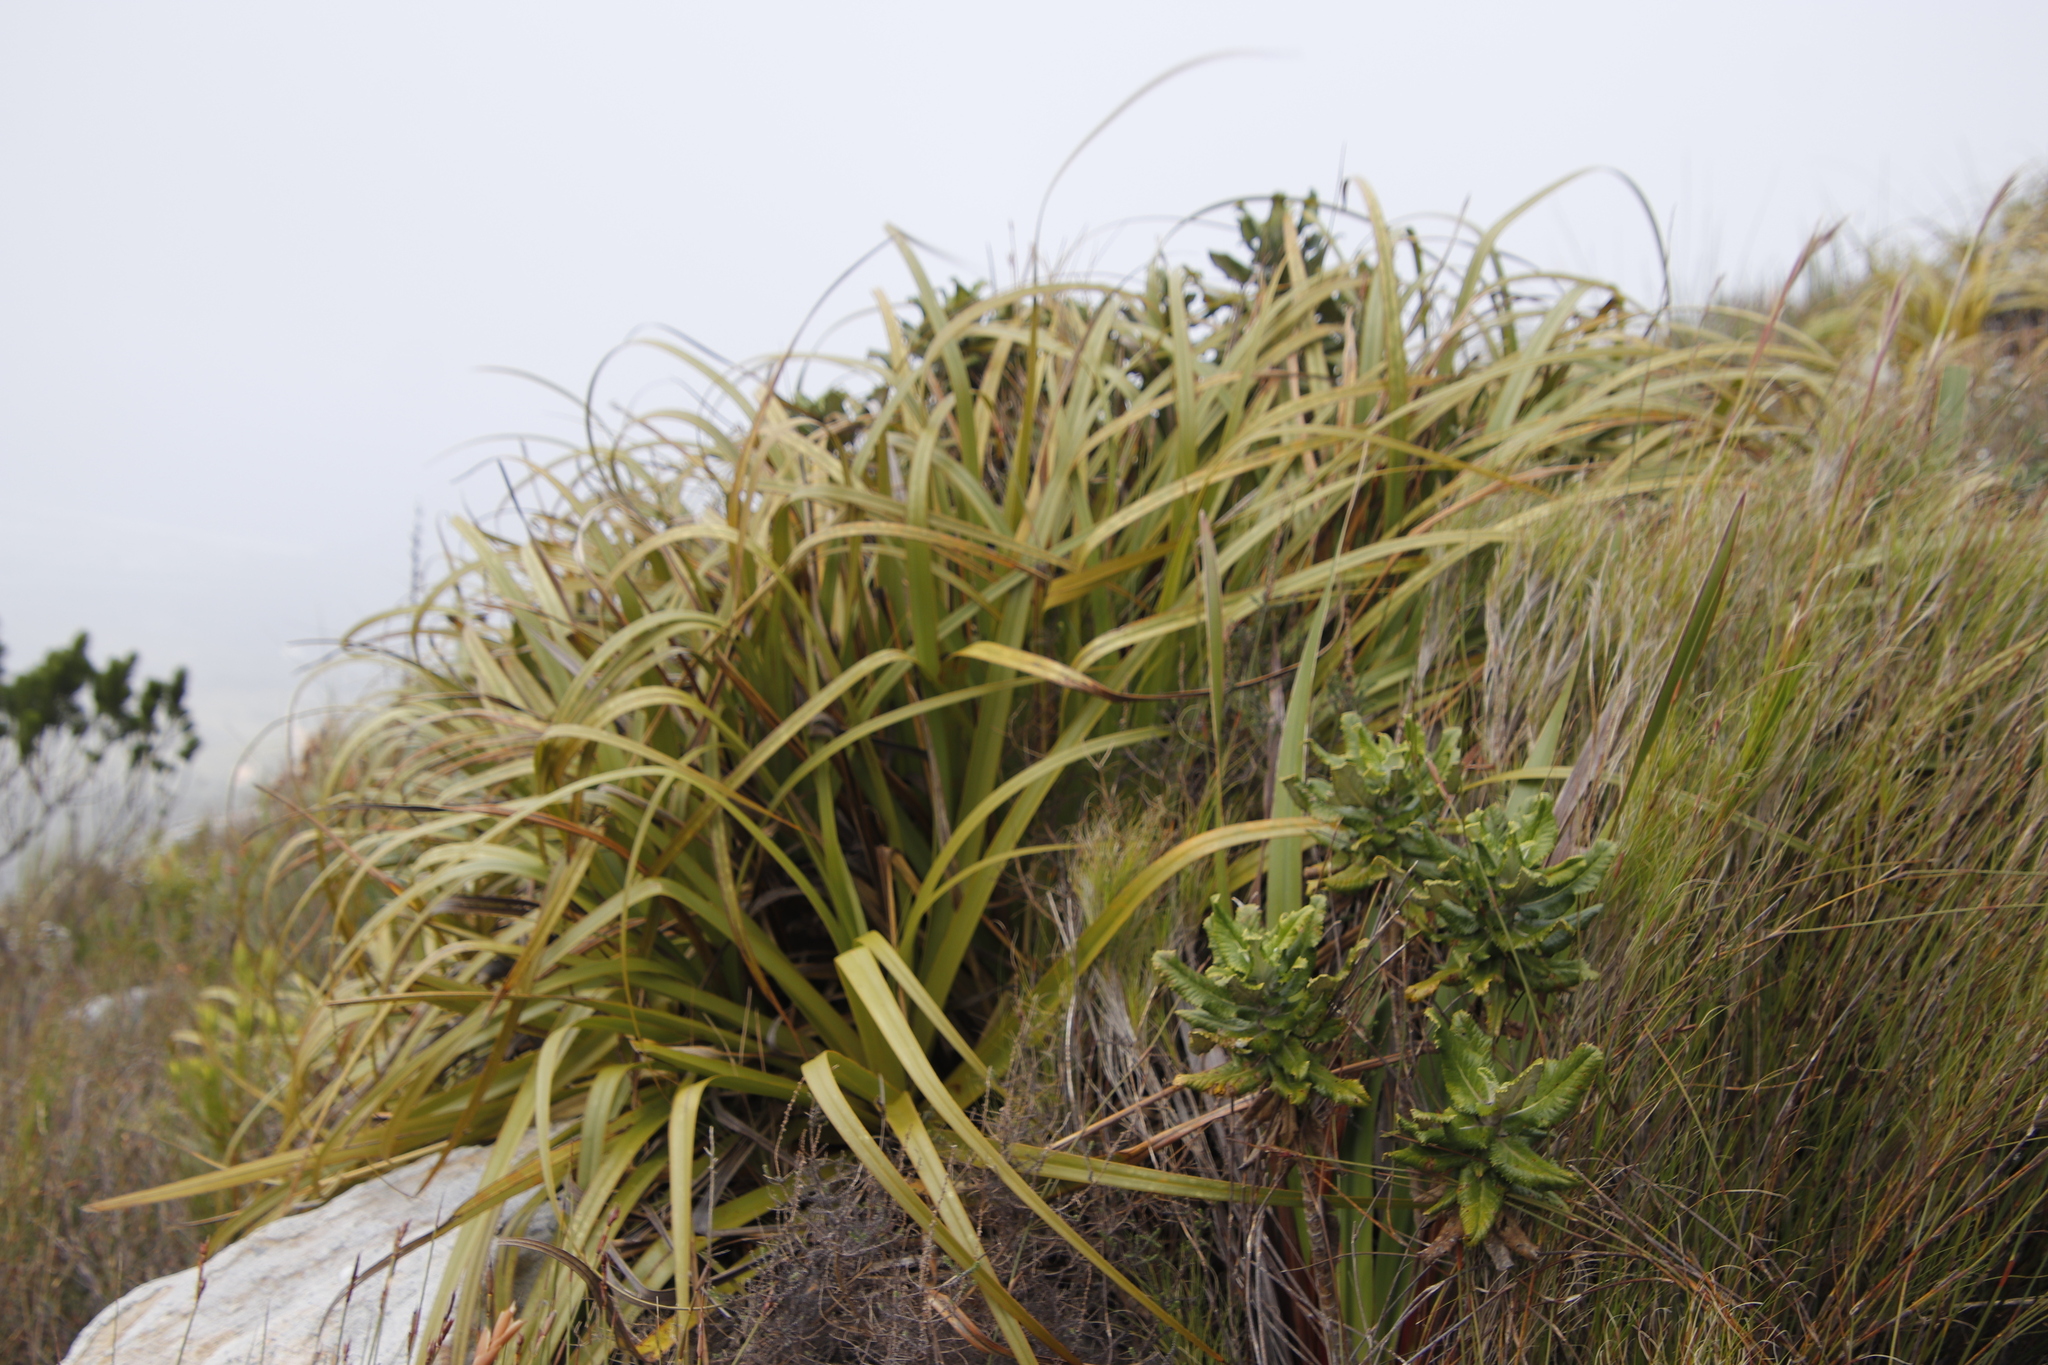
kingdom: Plantae
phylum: Tracheophyta
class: Liliopsida
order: Poales
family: Cyperaceae
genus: Tetraria
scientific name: Tetraria thermalis
